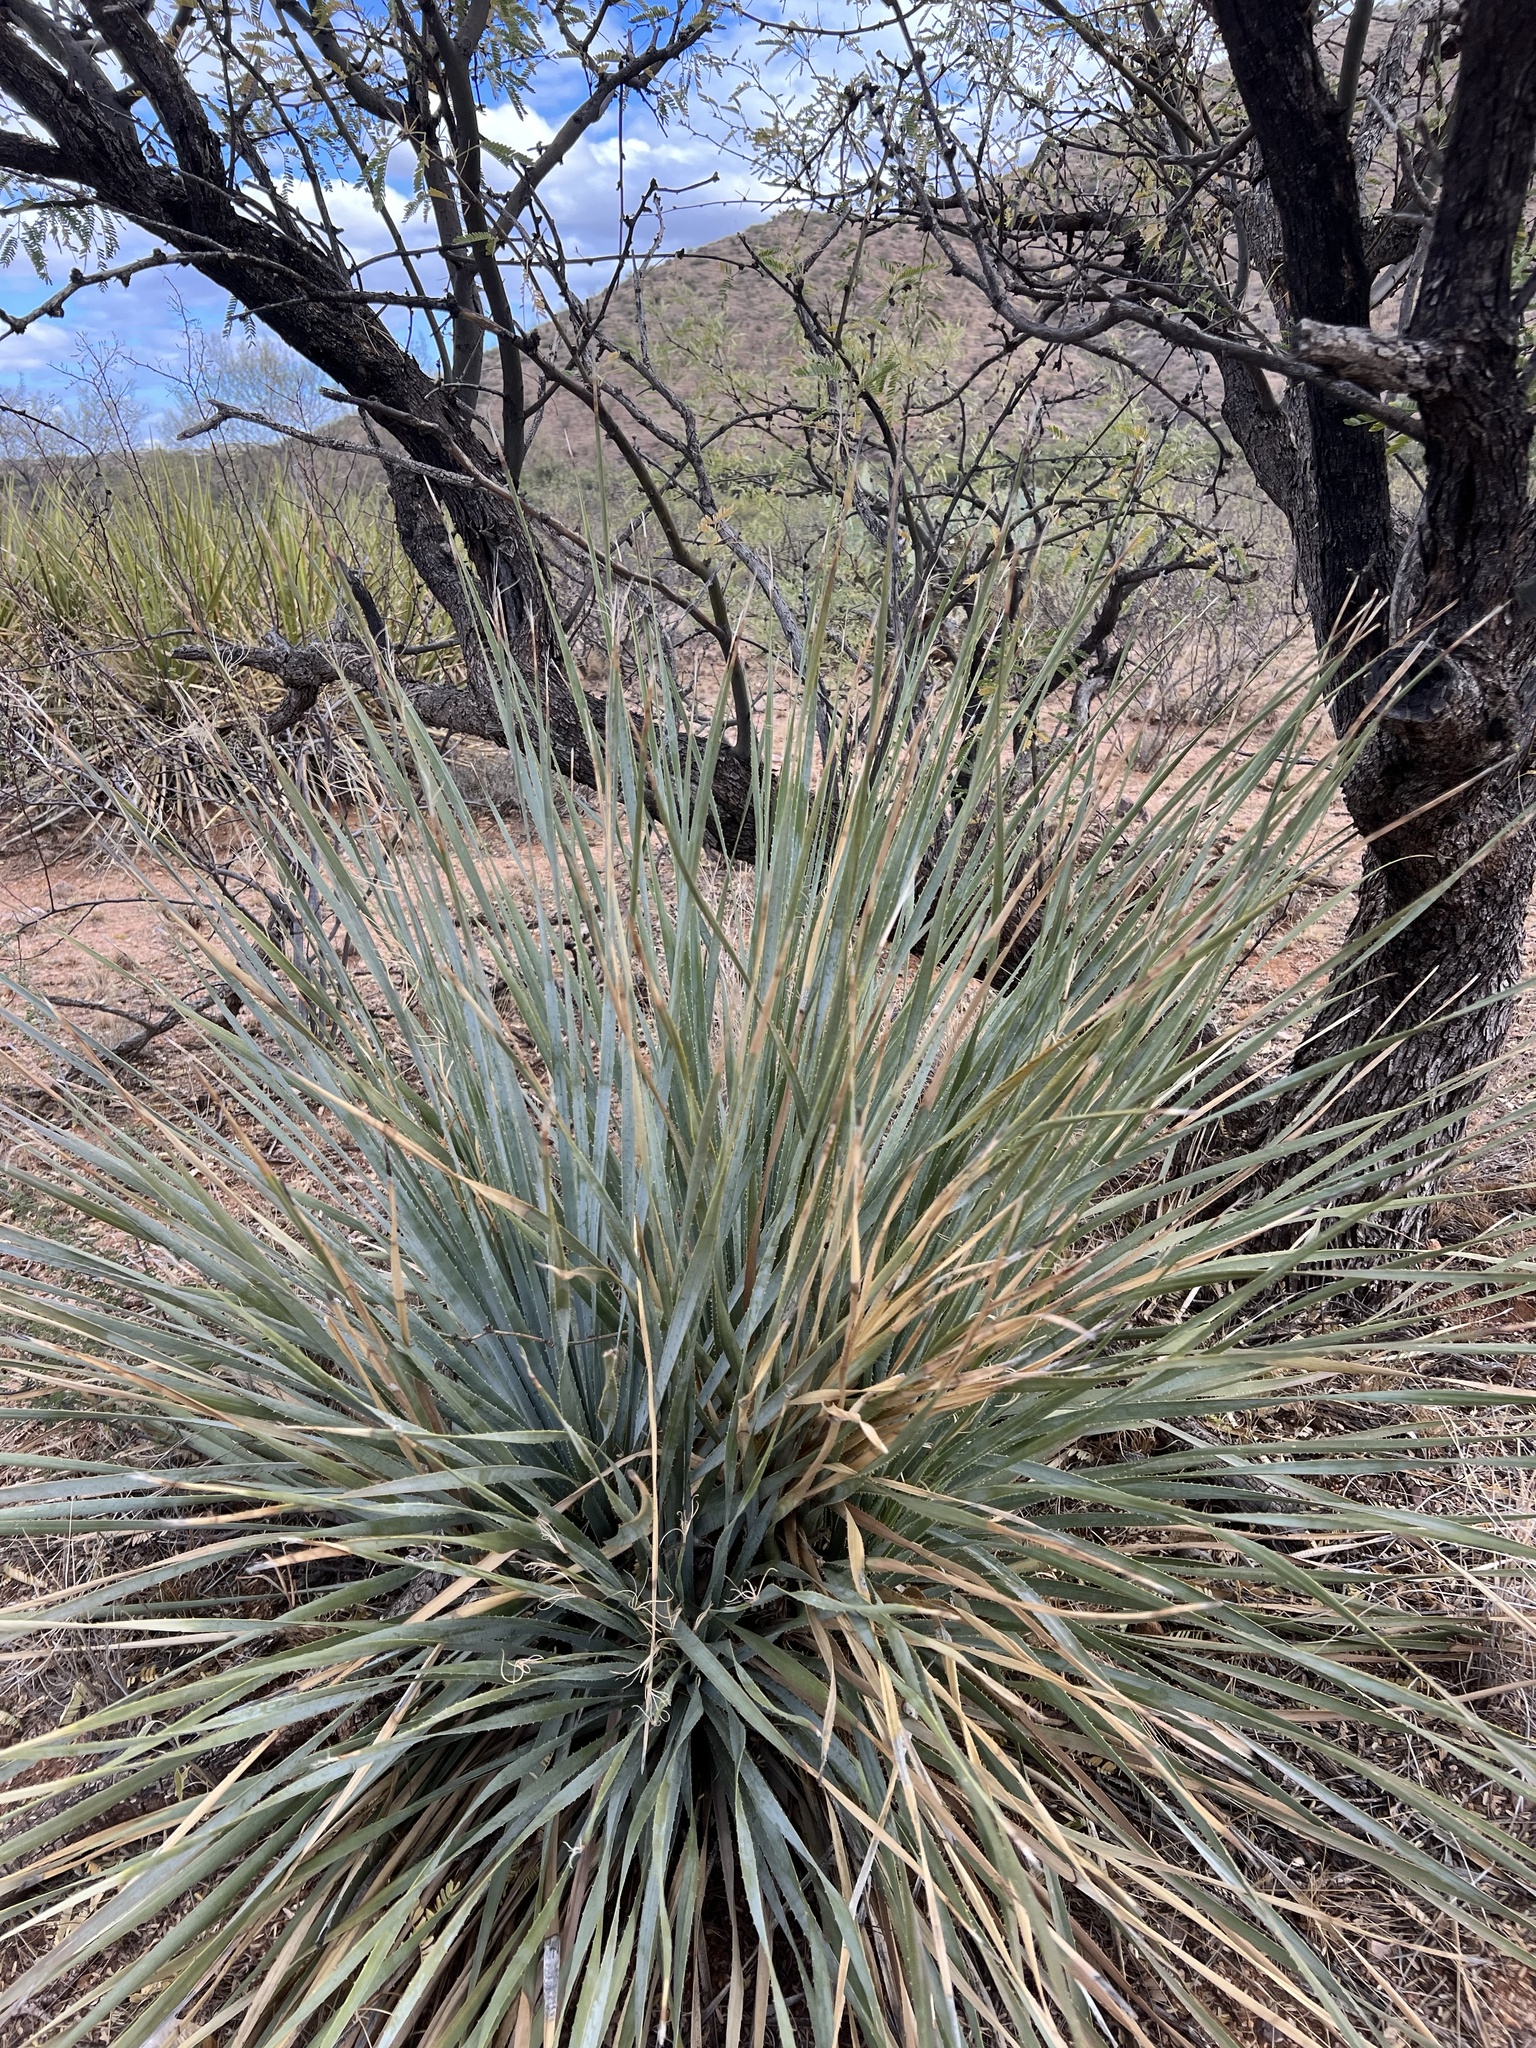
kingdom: Plantae
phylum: Tracheophyta
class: Liliopsida
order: Asparagales
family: Asparagaceae
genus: Dasylirion
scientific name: Dasylirion wheeleri
